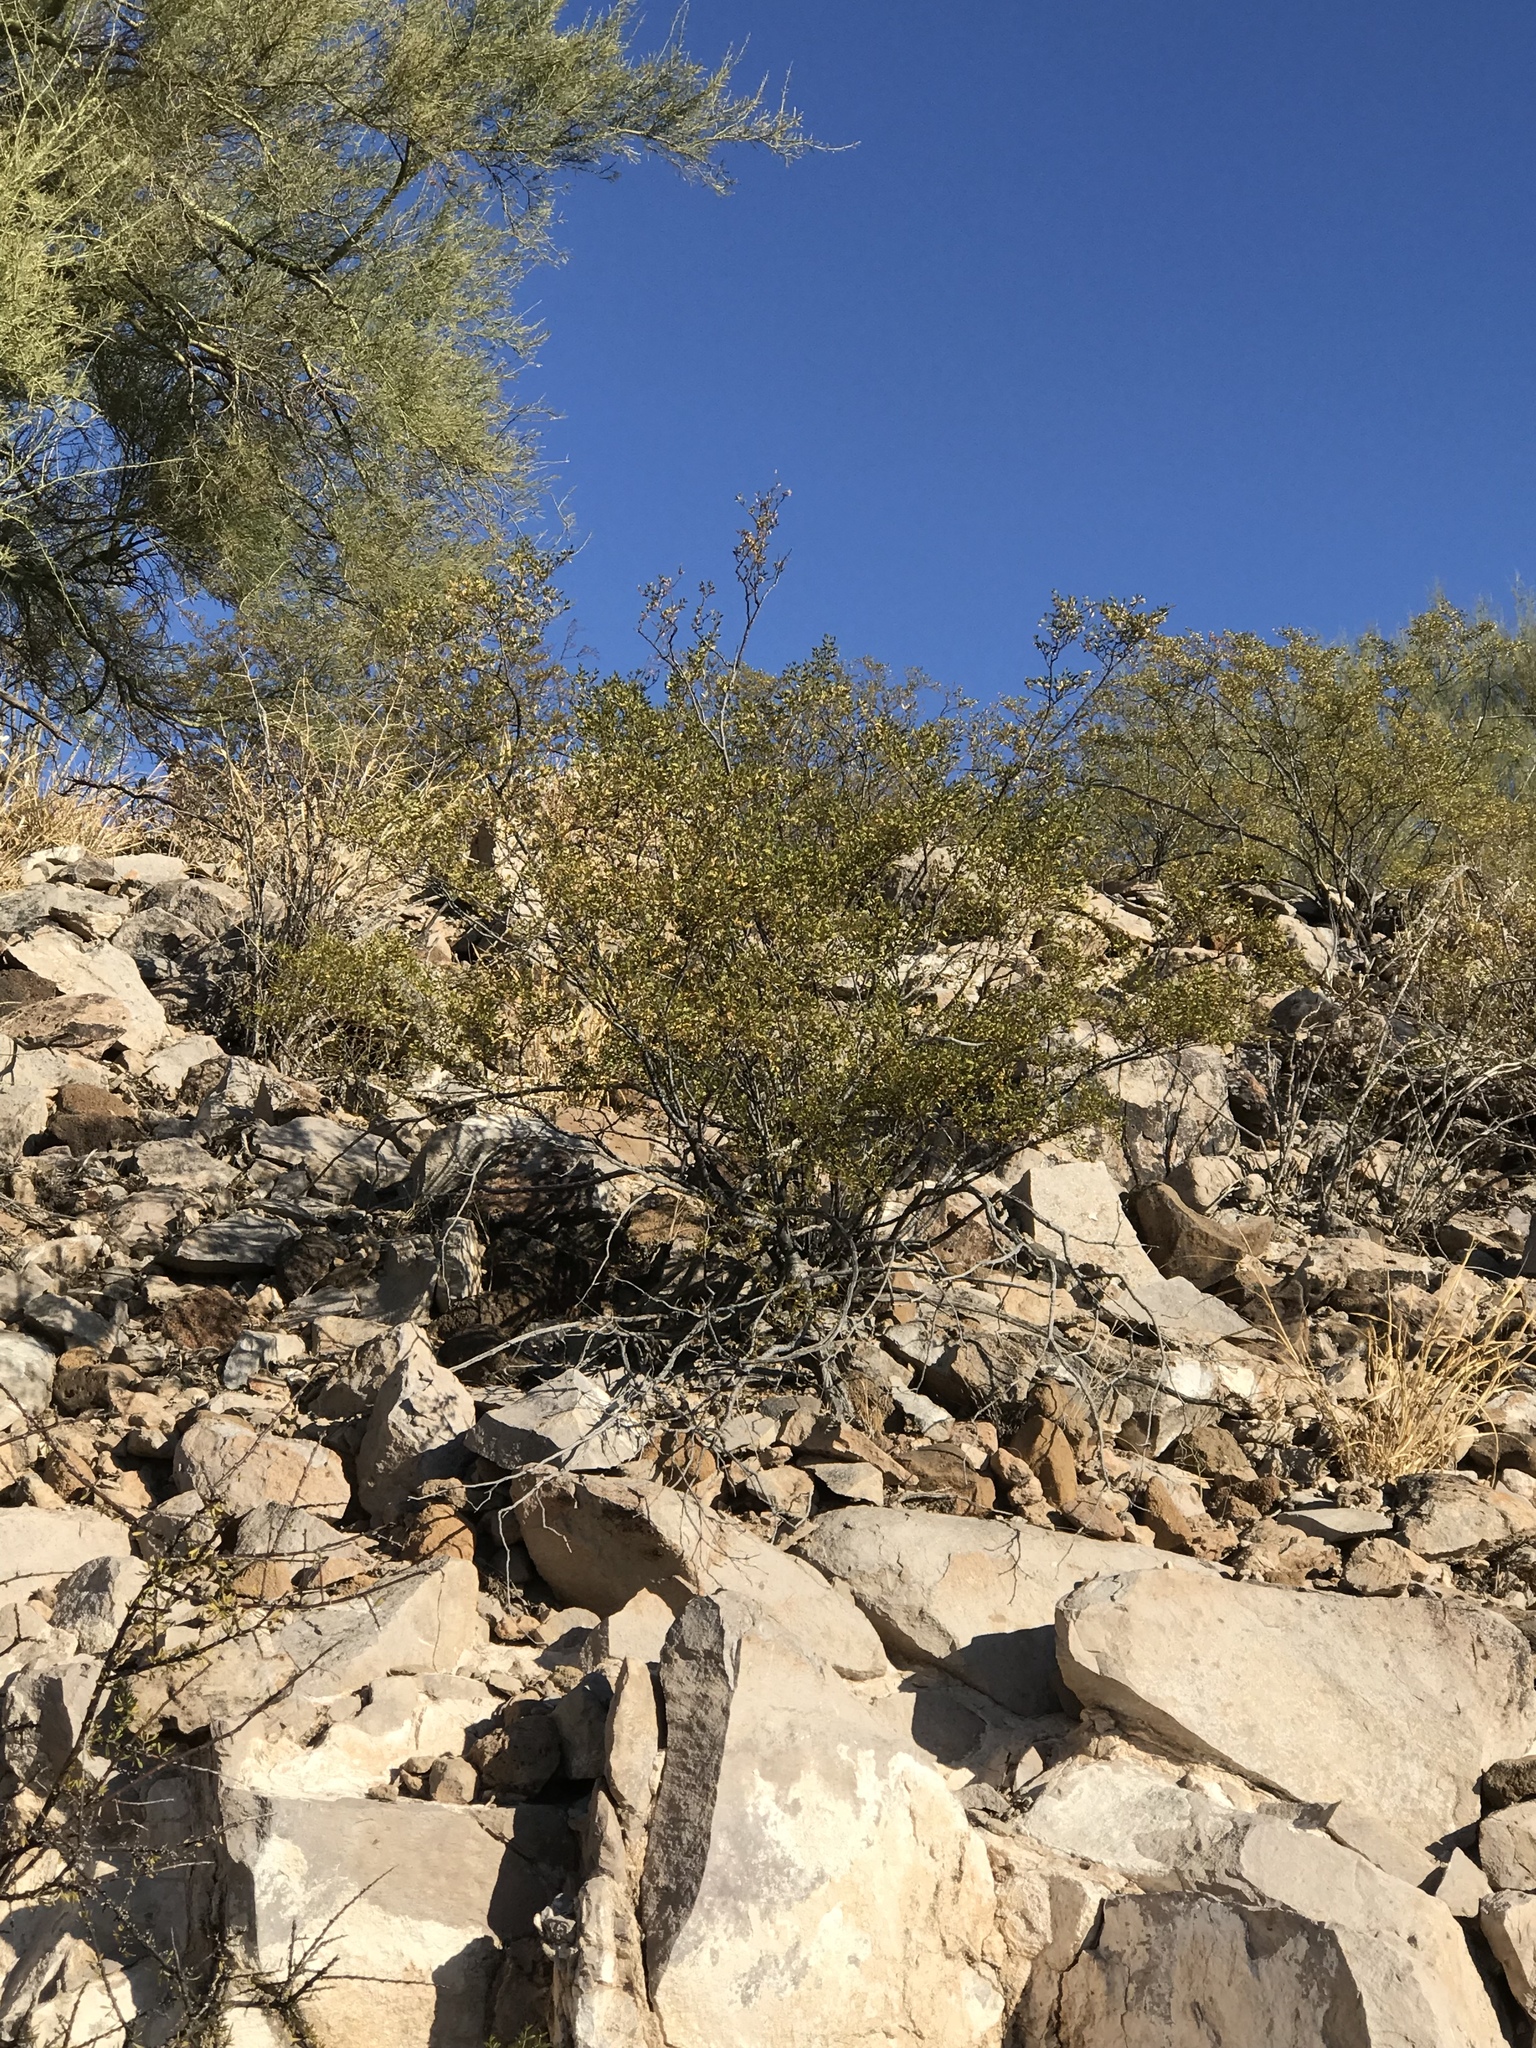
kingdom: Plantae
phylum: Tracheophyta
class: Magnoliopsida
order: Zygophyllales
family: Zygophyllaceae
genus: Larrea
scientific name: Larrea tridentata
